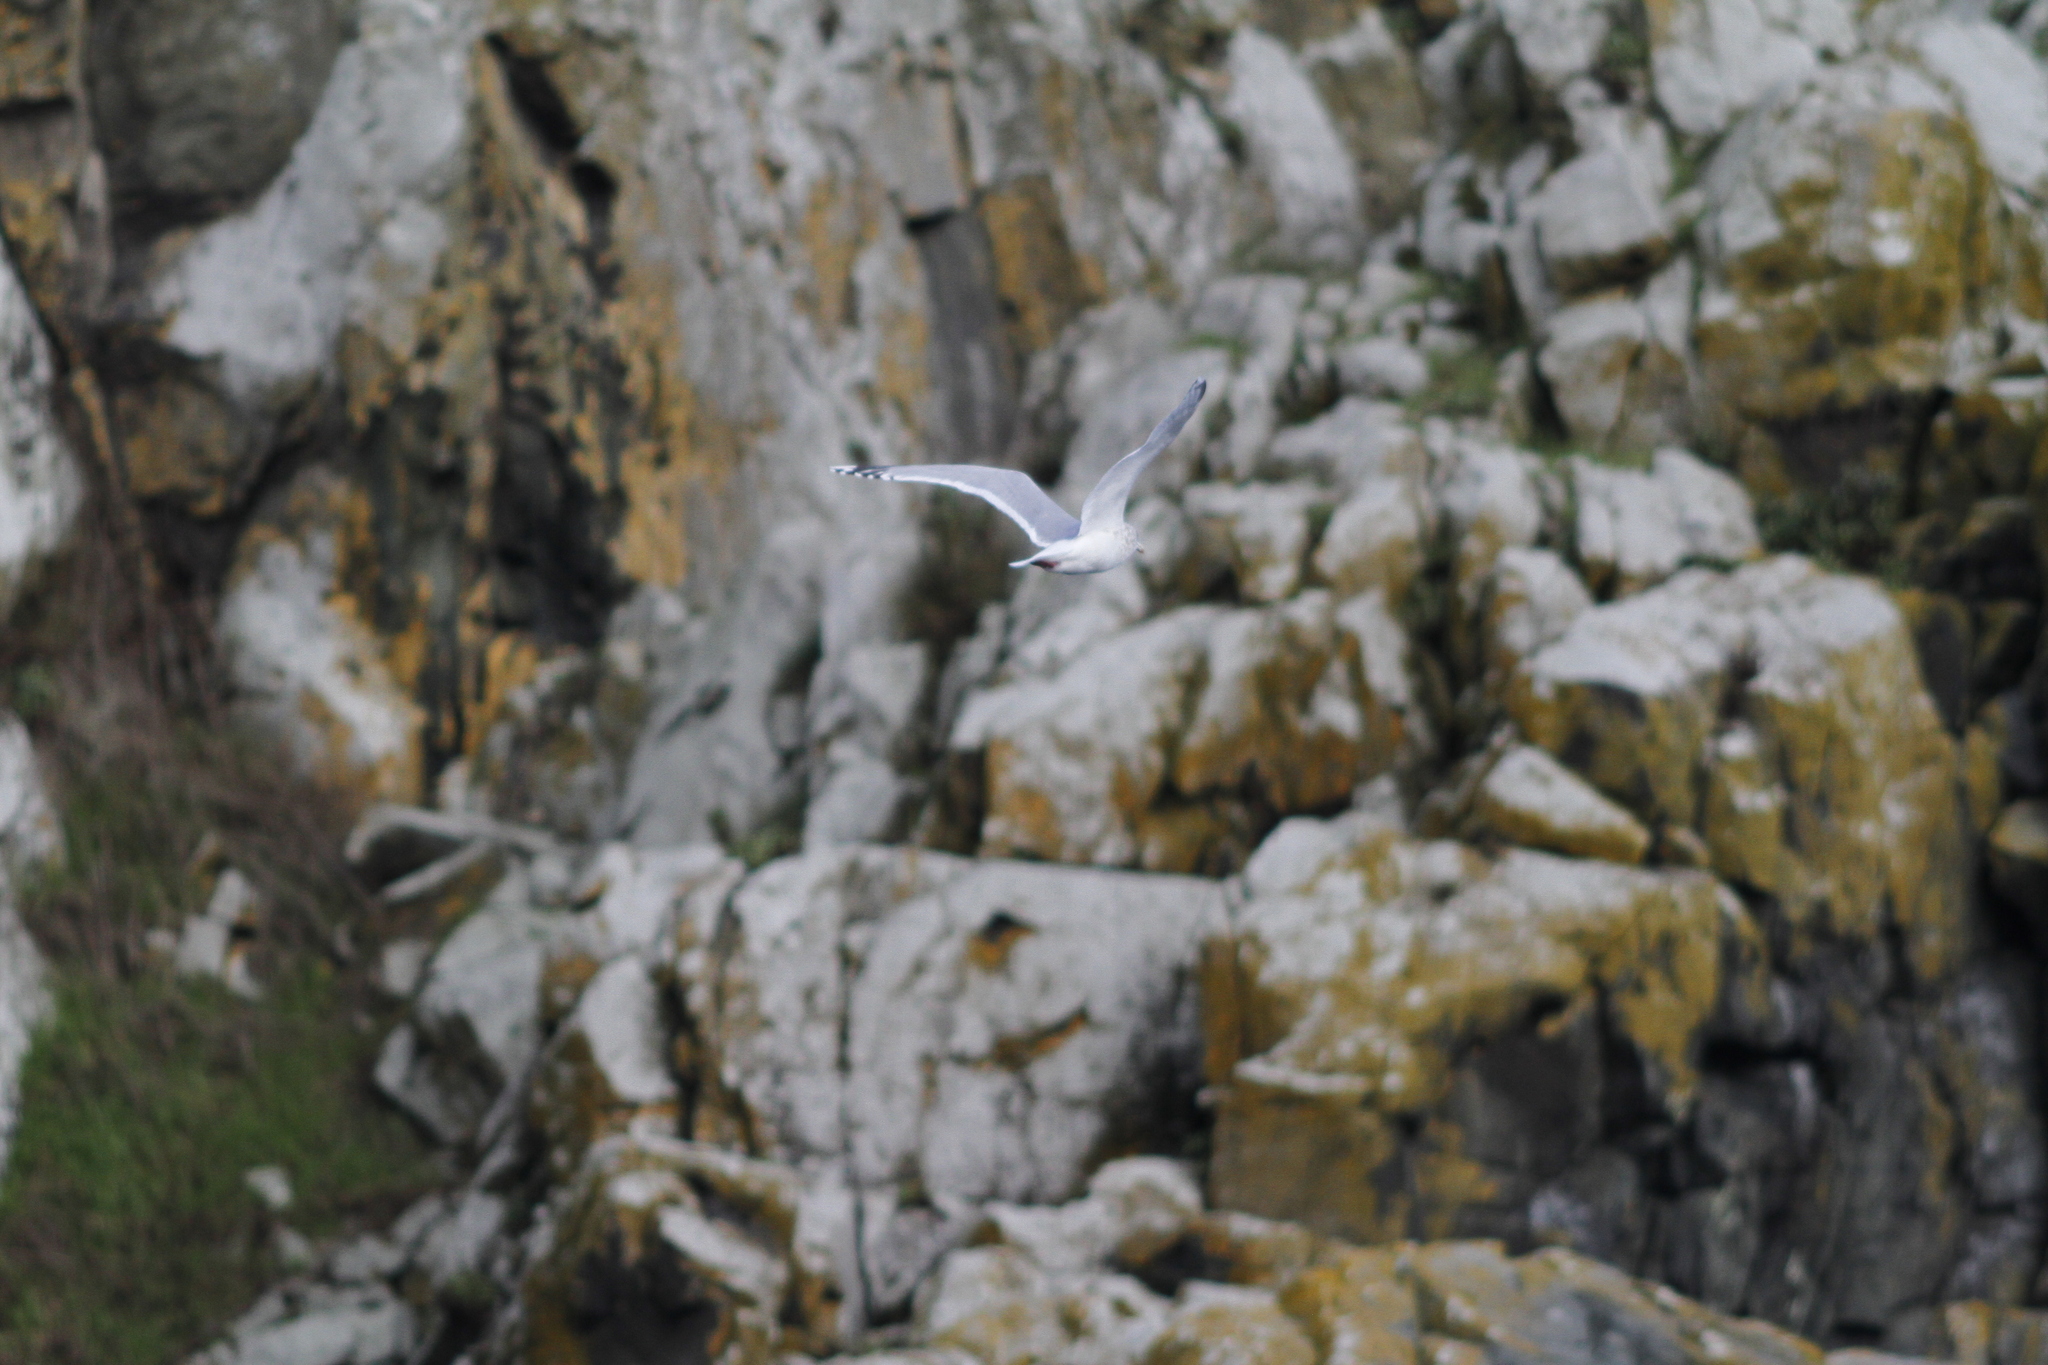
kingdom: Animalia
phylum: Chordata
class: Aves
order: Charadriiformes
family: Laridae
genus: Larus
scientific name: Larus glaucoides
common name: Iceland gull
